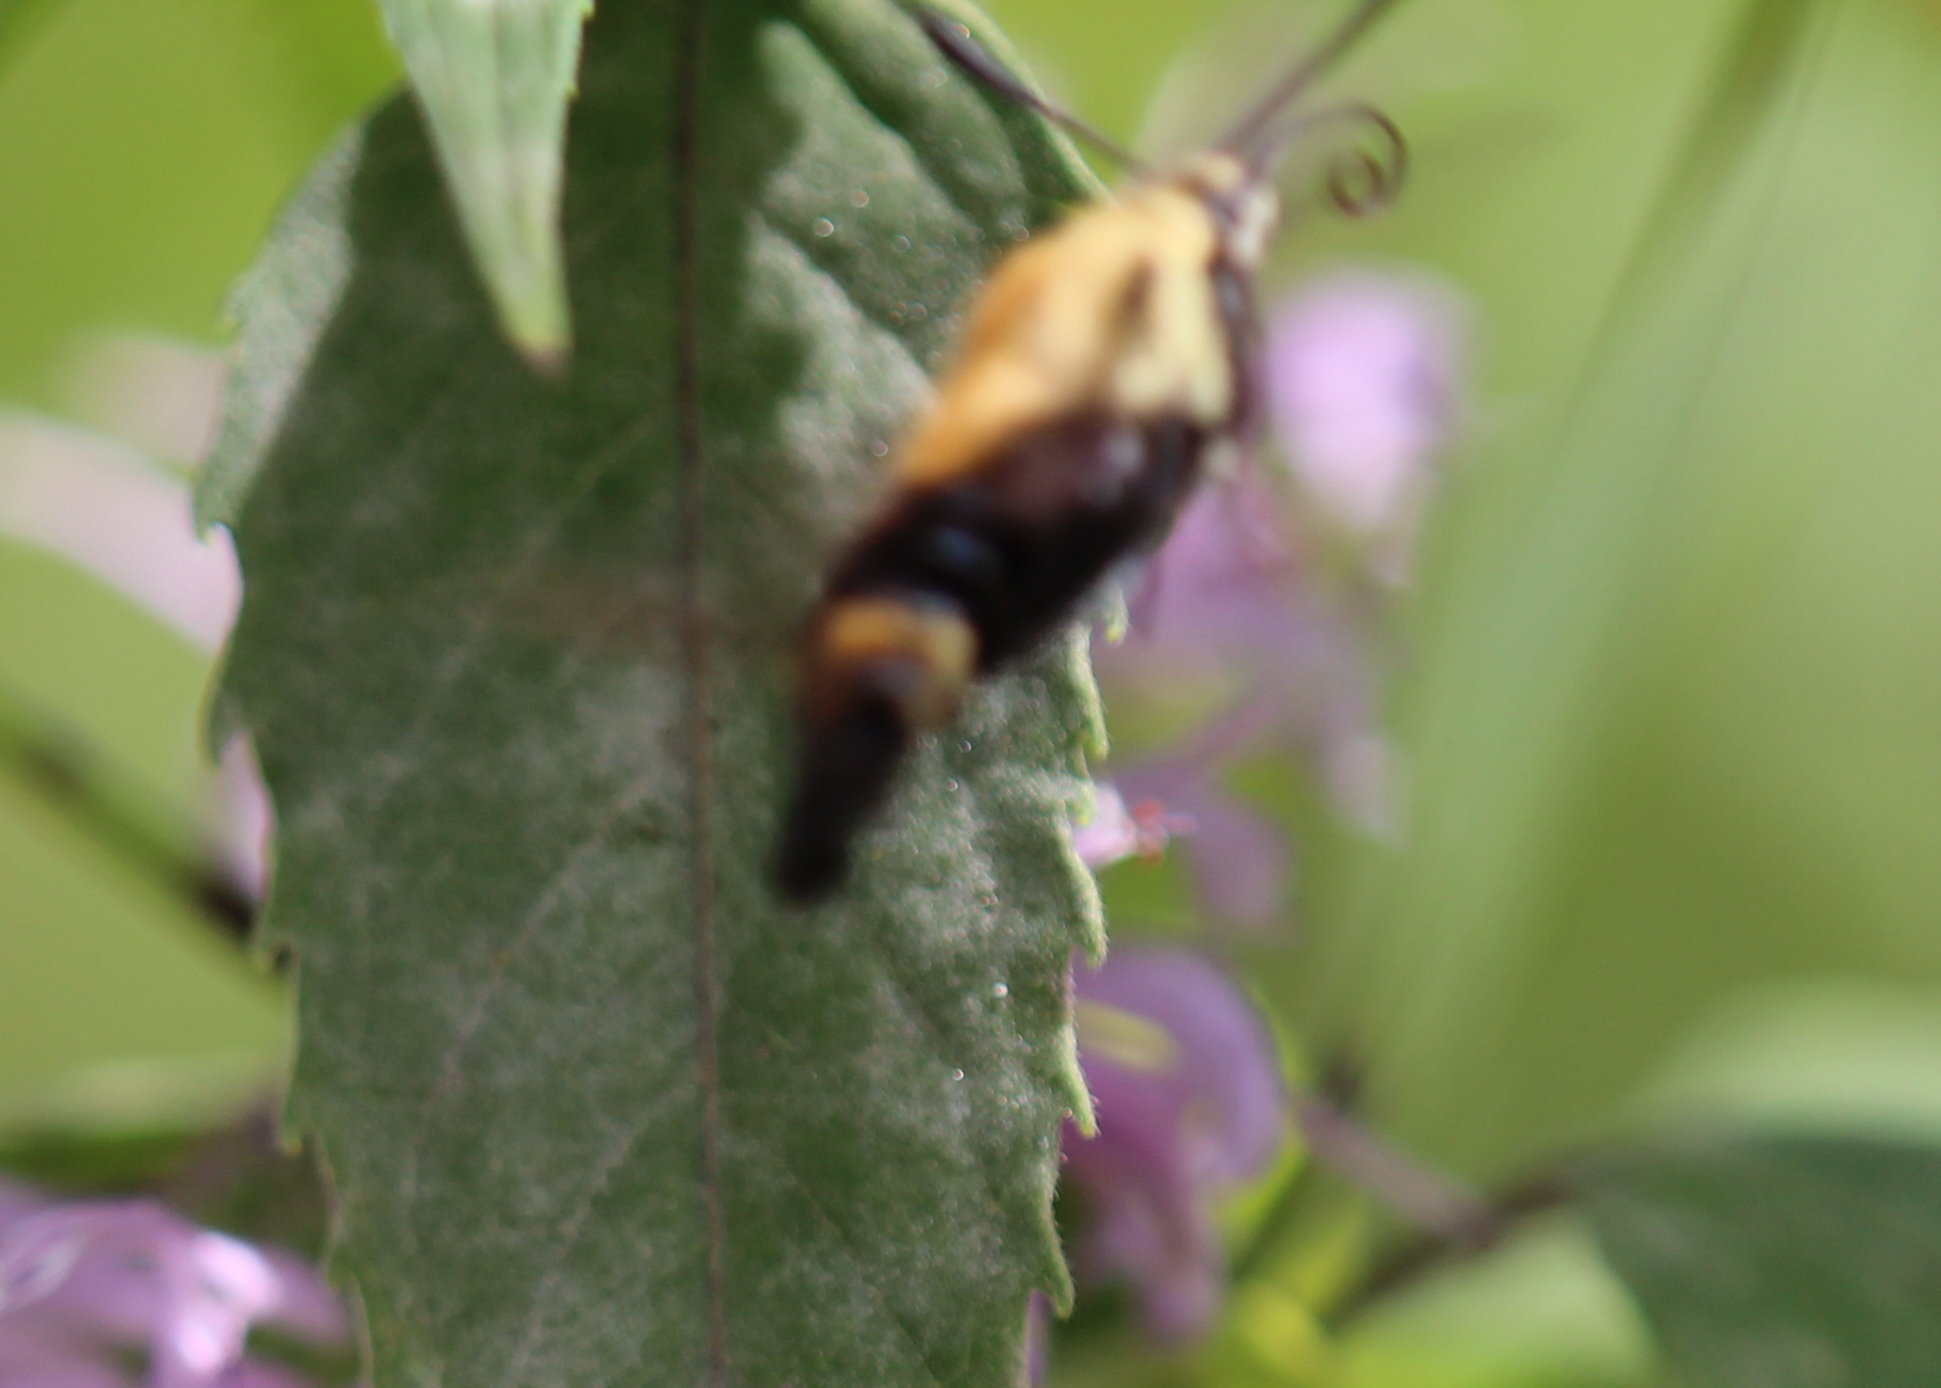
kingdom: Animalia
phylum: Arthropoda
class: Insecta
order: Lepidoptera
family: Sphingidae
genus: Hemaris
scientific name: Hemaris diffinis
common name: Bumblebee moth
